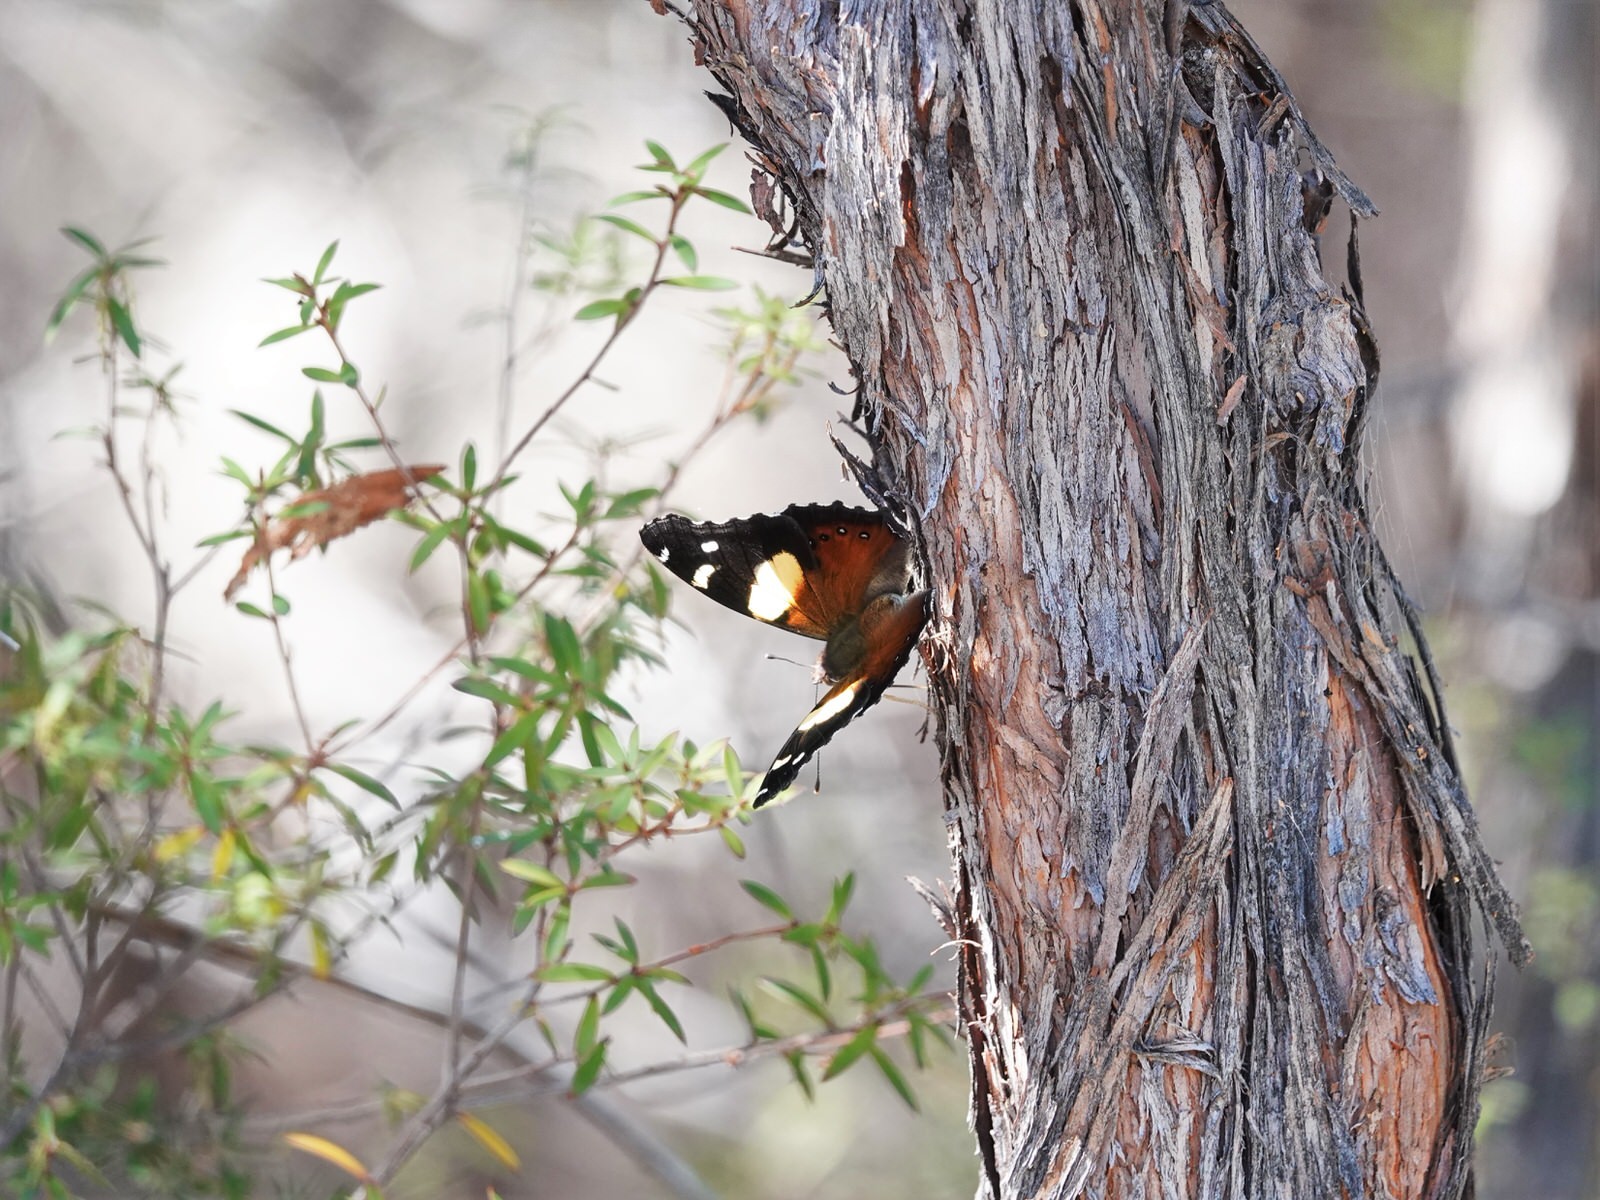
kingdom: Animalia
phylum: Arthropoda
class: Insecta
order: Lepidoptera
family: Nymphalidae
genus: Vanessa
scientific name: Vanessa itea
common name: Yellow admiral
